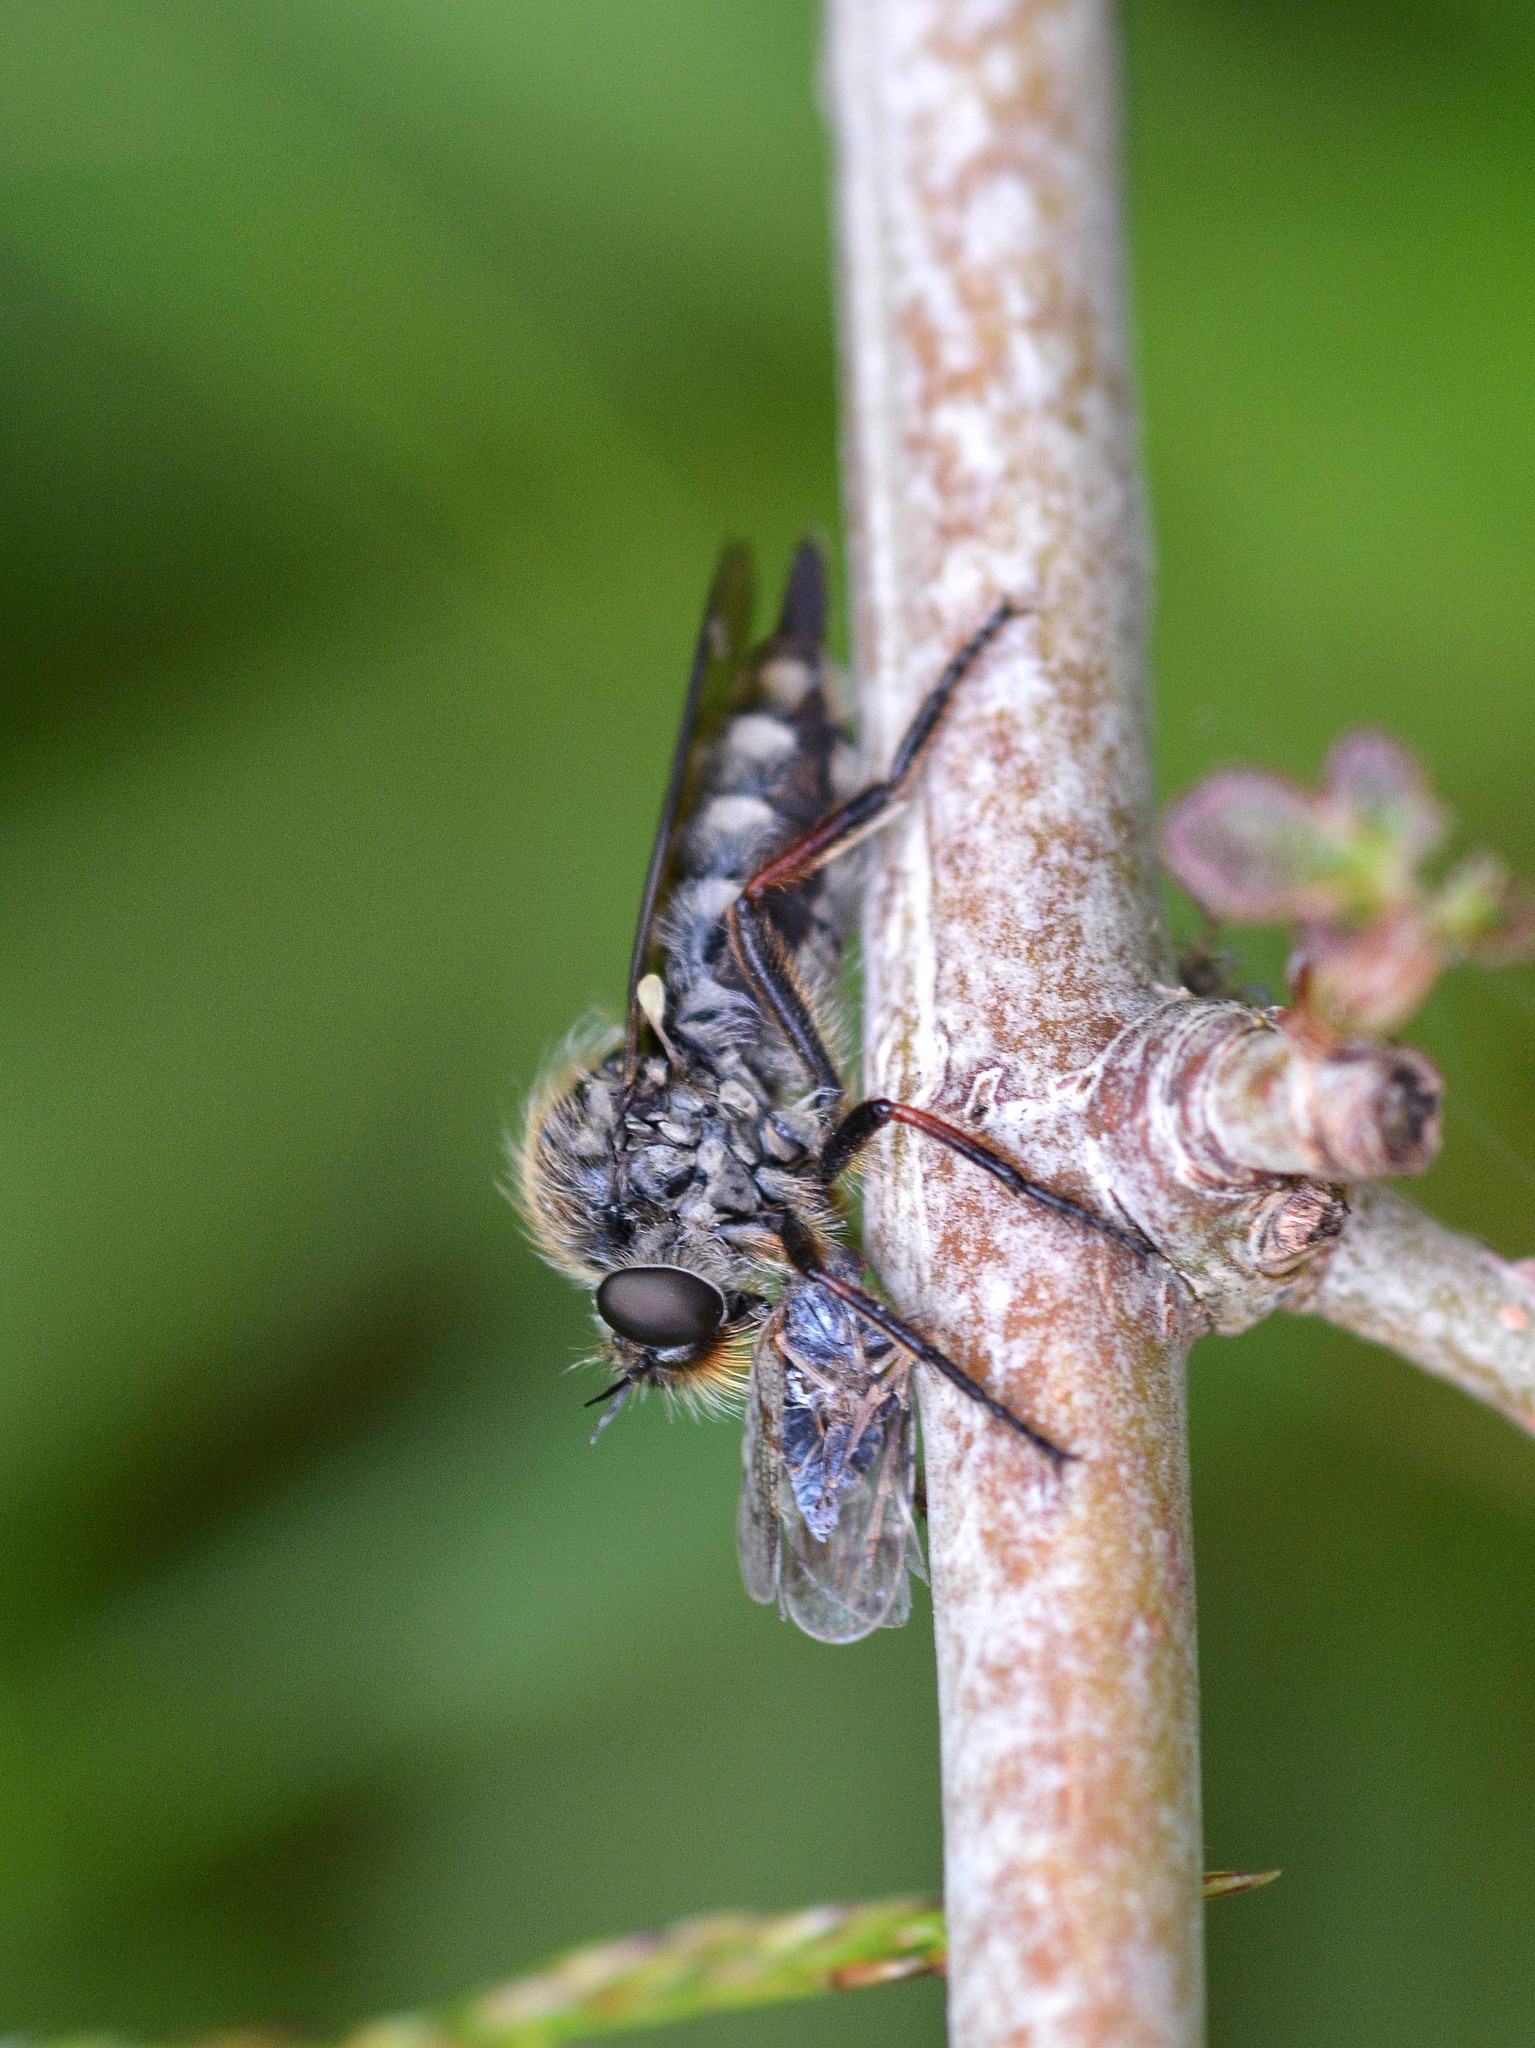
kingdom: Animalia
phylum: Arthropoda
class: Insecta
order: Diptera
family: Asilidae
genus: Leptarthrus
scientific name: Leptarthrus brevirostris
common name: Slender-footed robberfly
